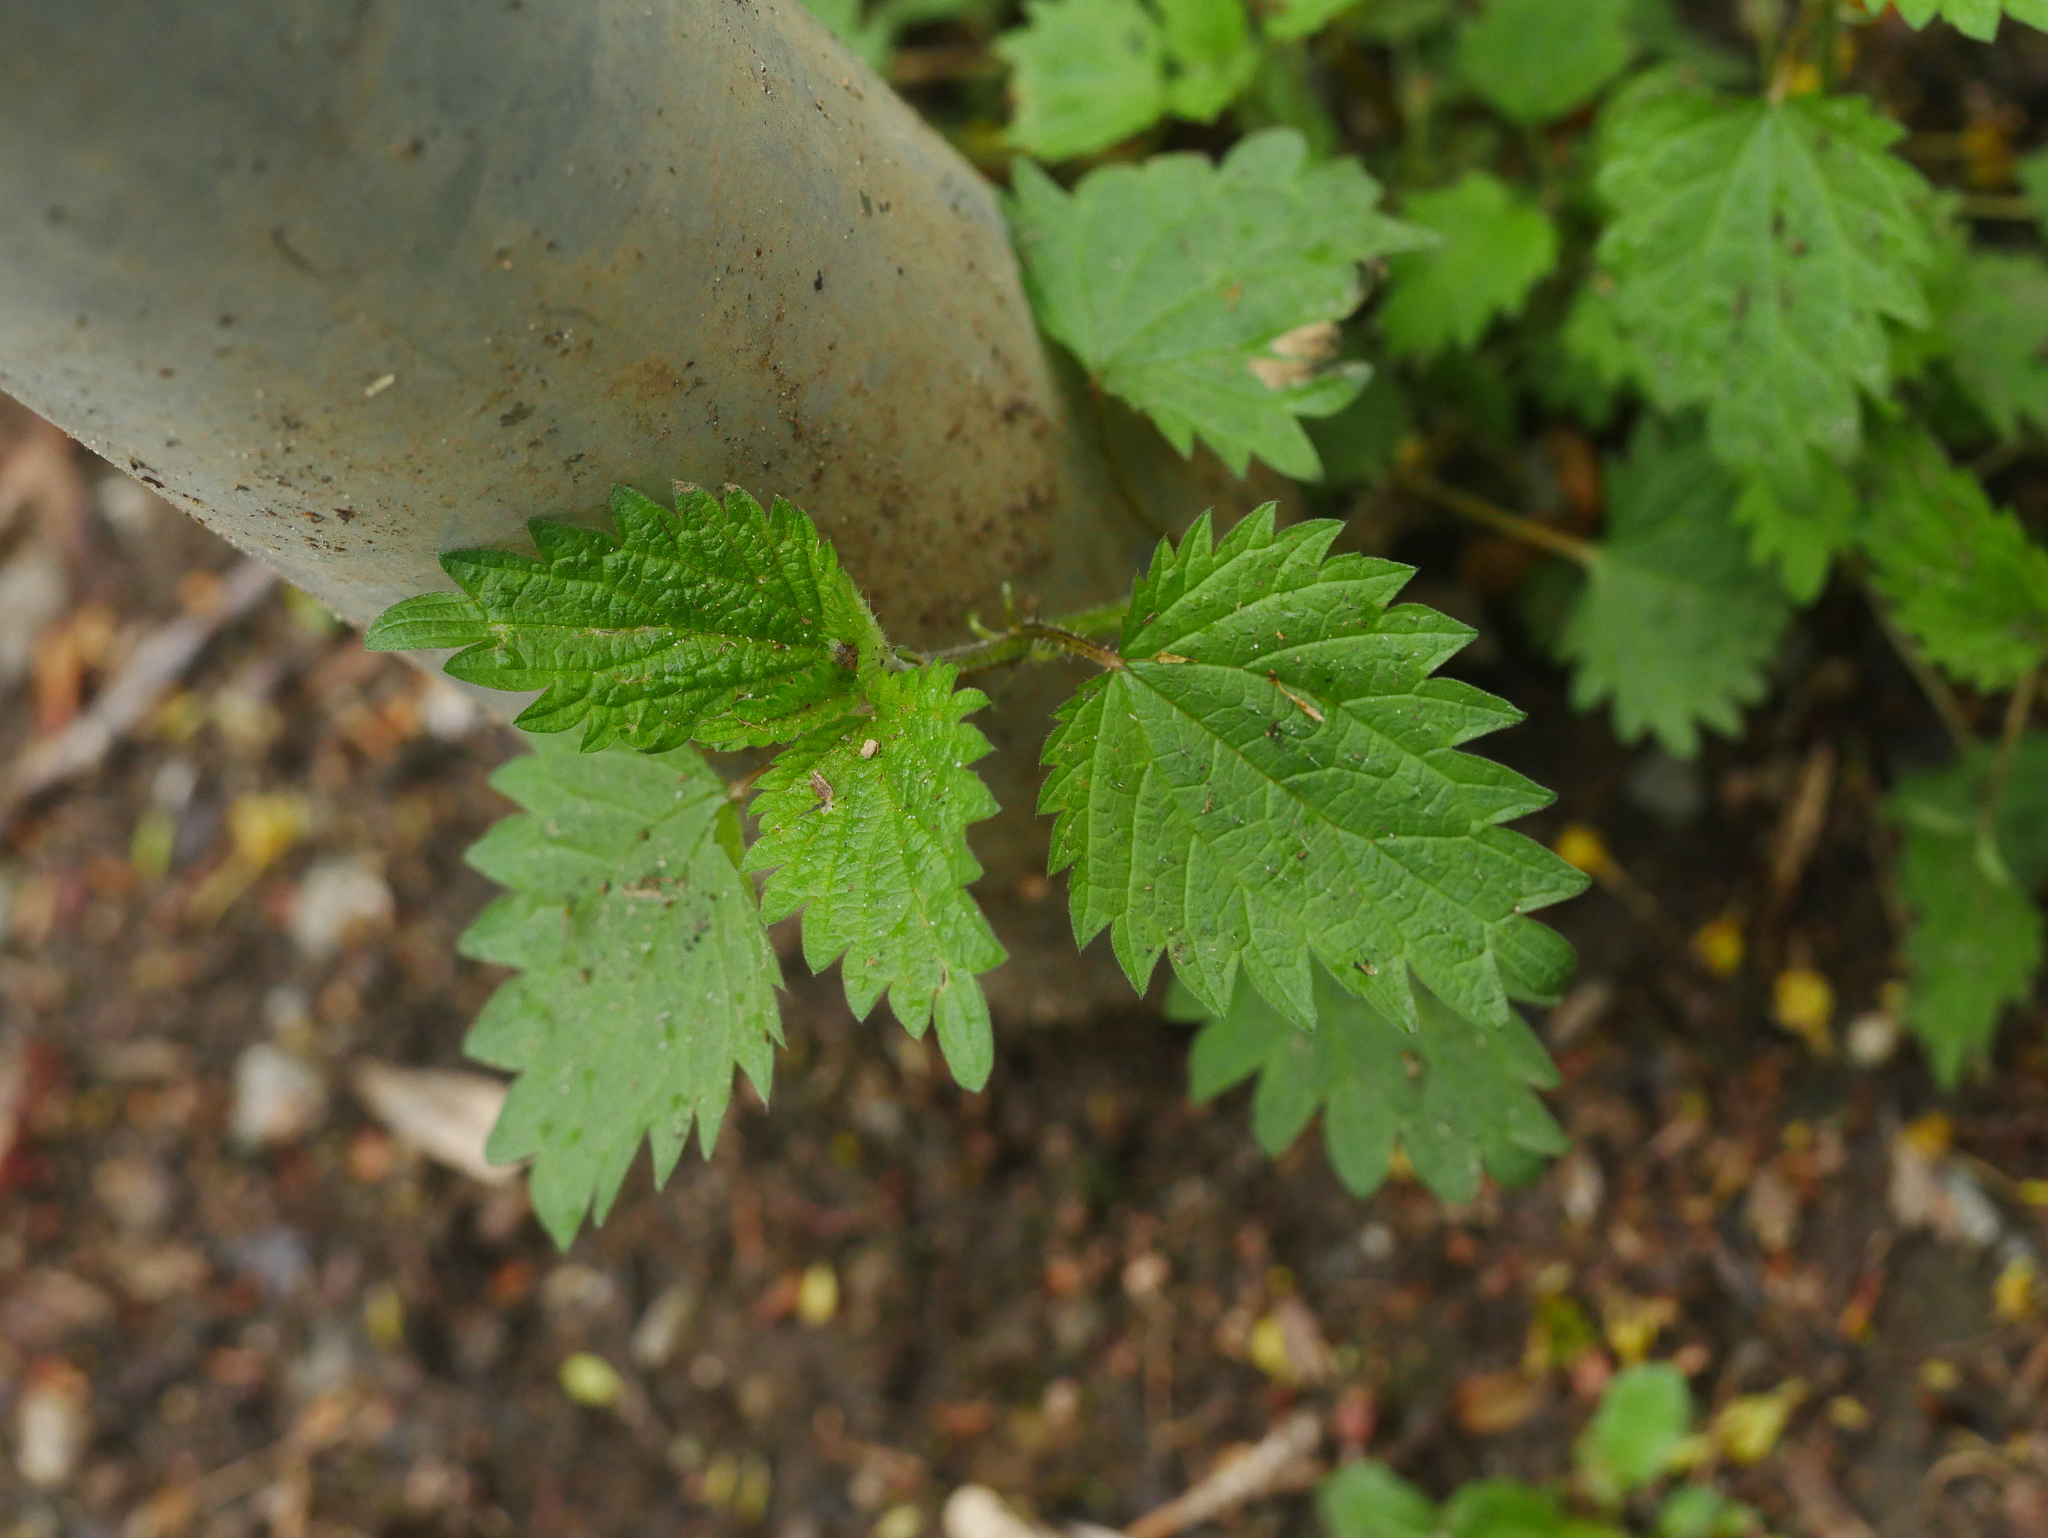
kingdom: Plantae
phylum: Tracheophyta
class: Magnoliopsida
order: Rosales
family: Urticaceae
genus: Urtica
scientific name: Urtica dioica
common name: Common nettle
